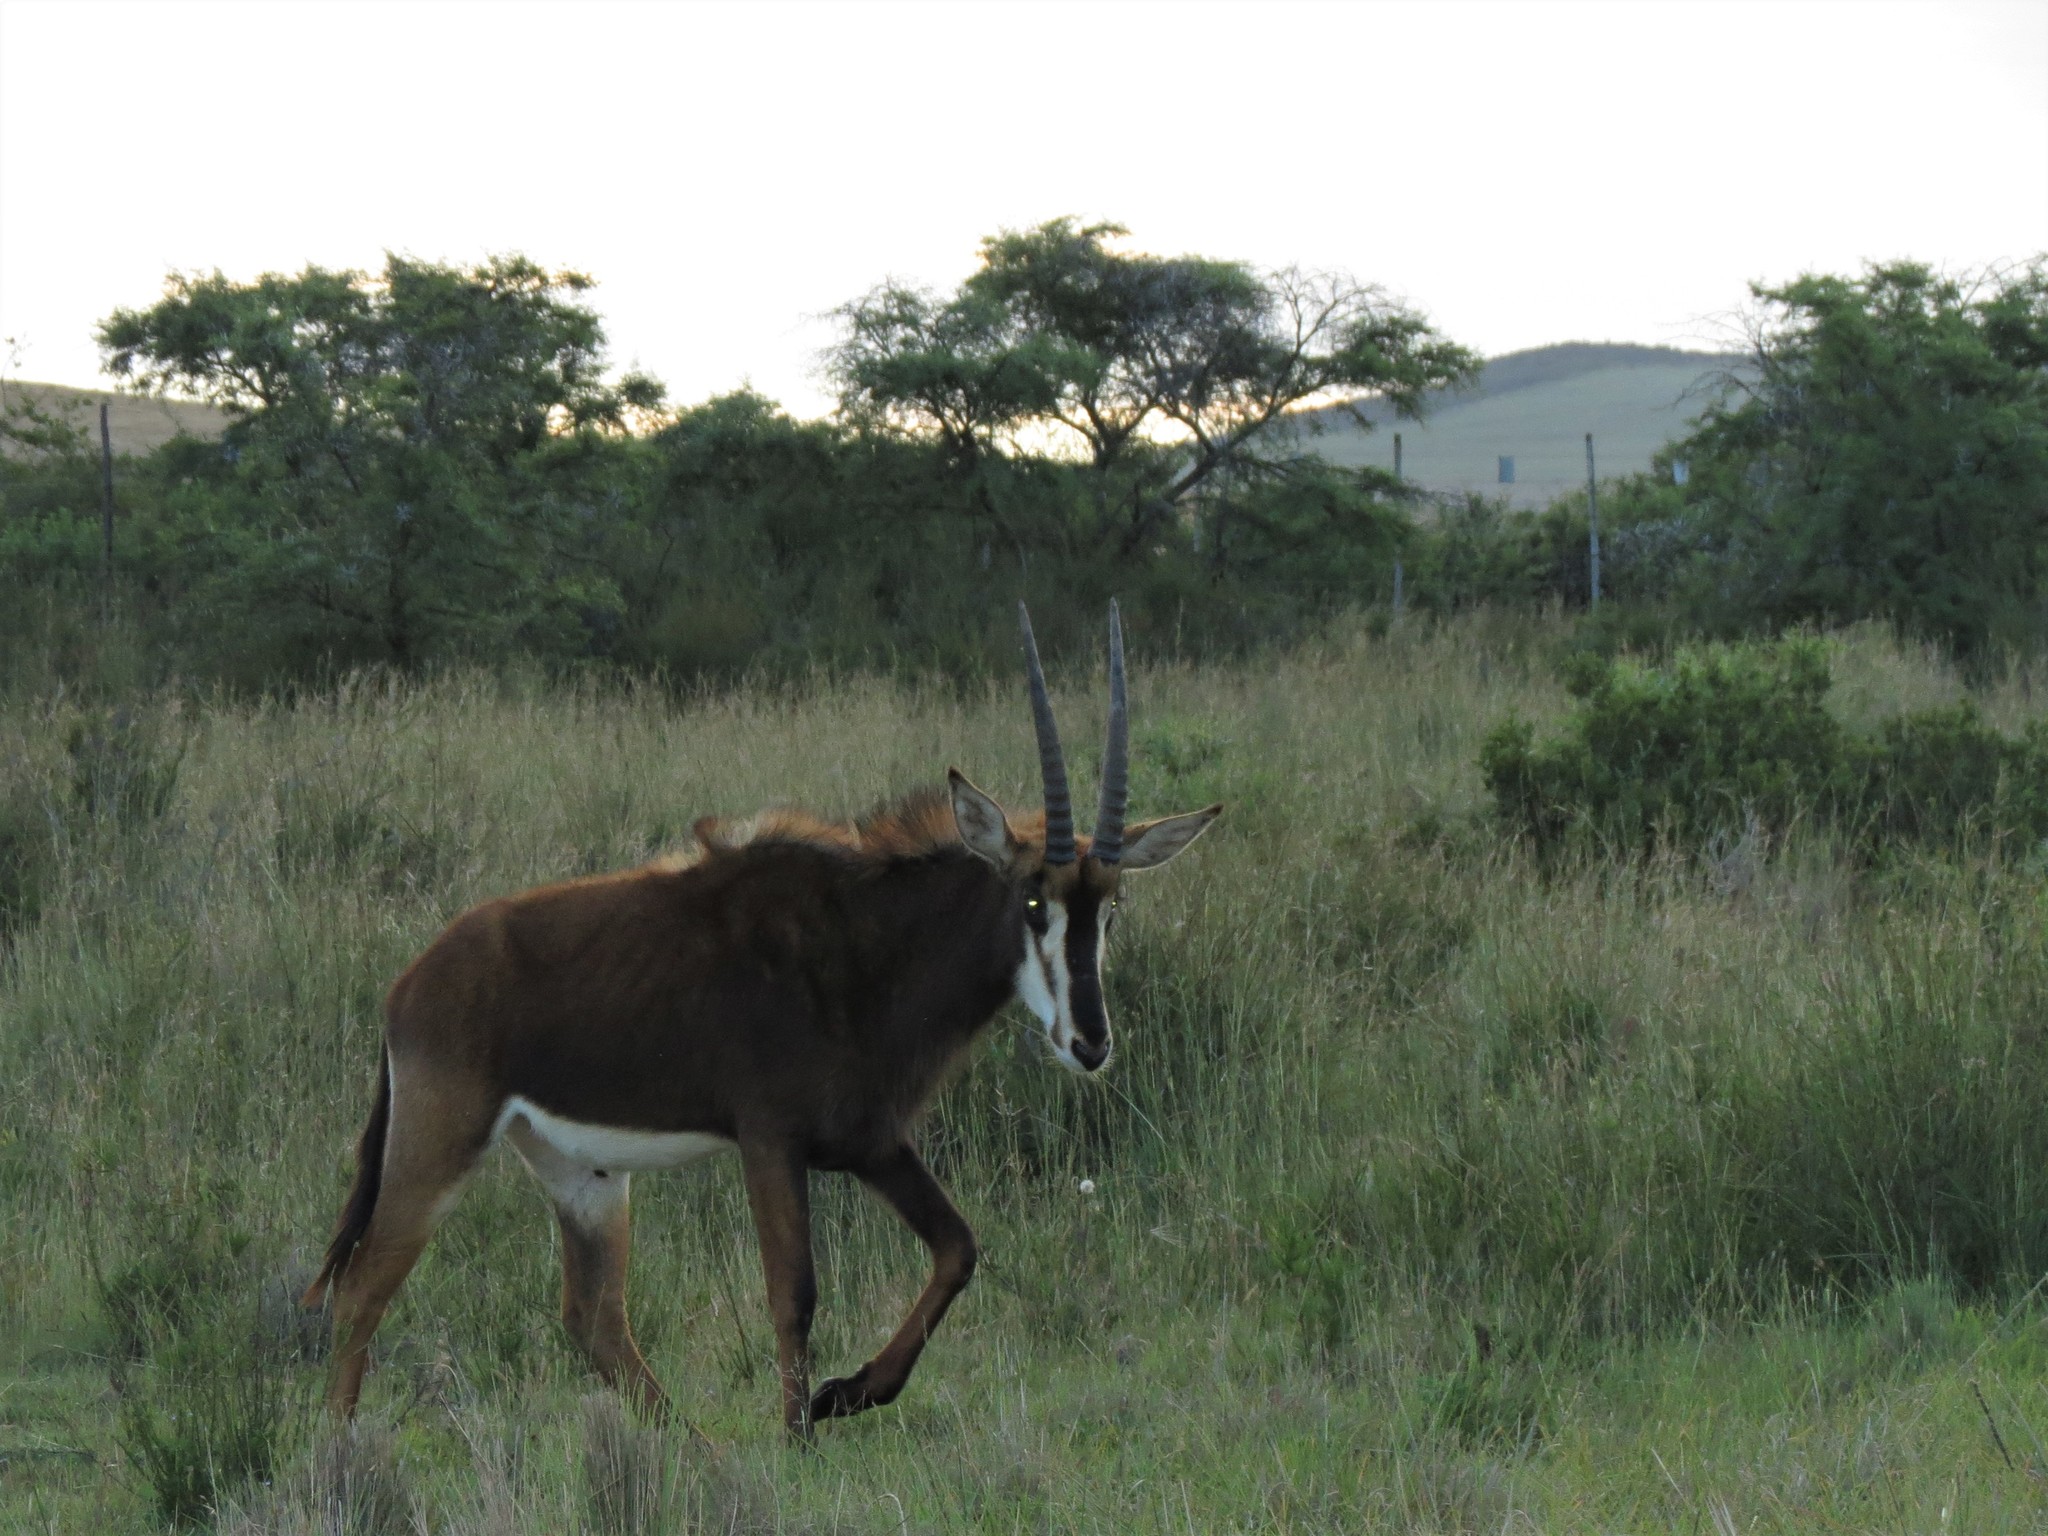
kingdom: Animalia
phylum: Chordata
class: Mammalia
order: Artiodactyla
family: Bovidae
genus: Hippotragus
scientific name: Hippotragus niger
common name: Sable antelope
